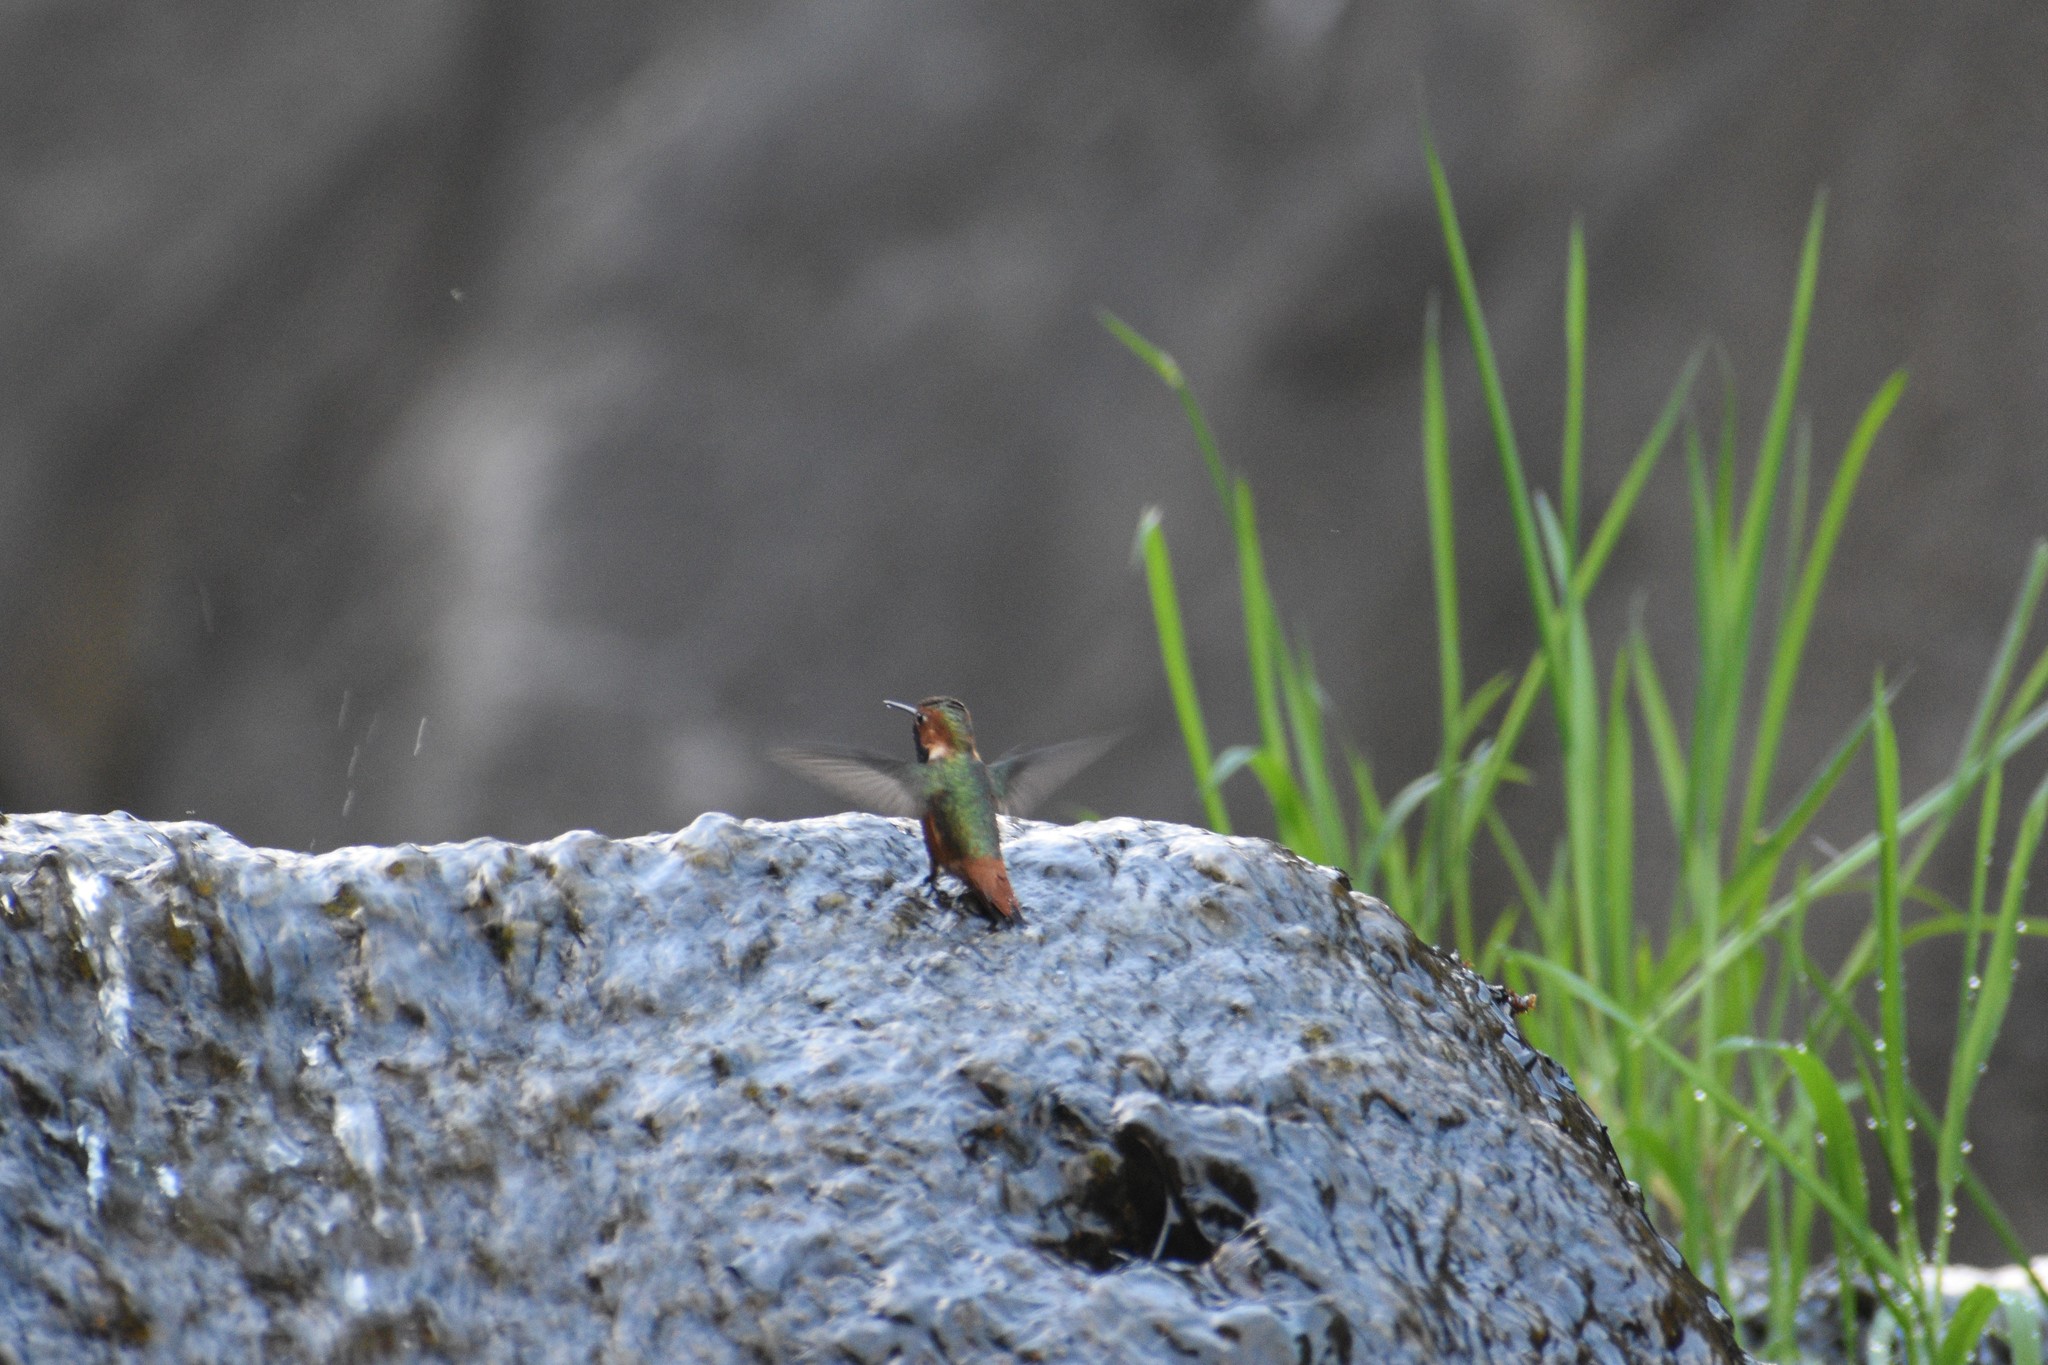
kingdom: Animalia
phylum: Chordata
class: Aves
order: Apodiformes
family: Trochilidae
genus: Selasphorus
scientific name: Selasphorus sasin
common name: Allen's hummingbird
